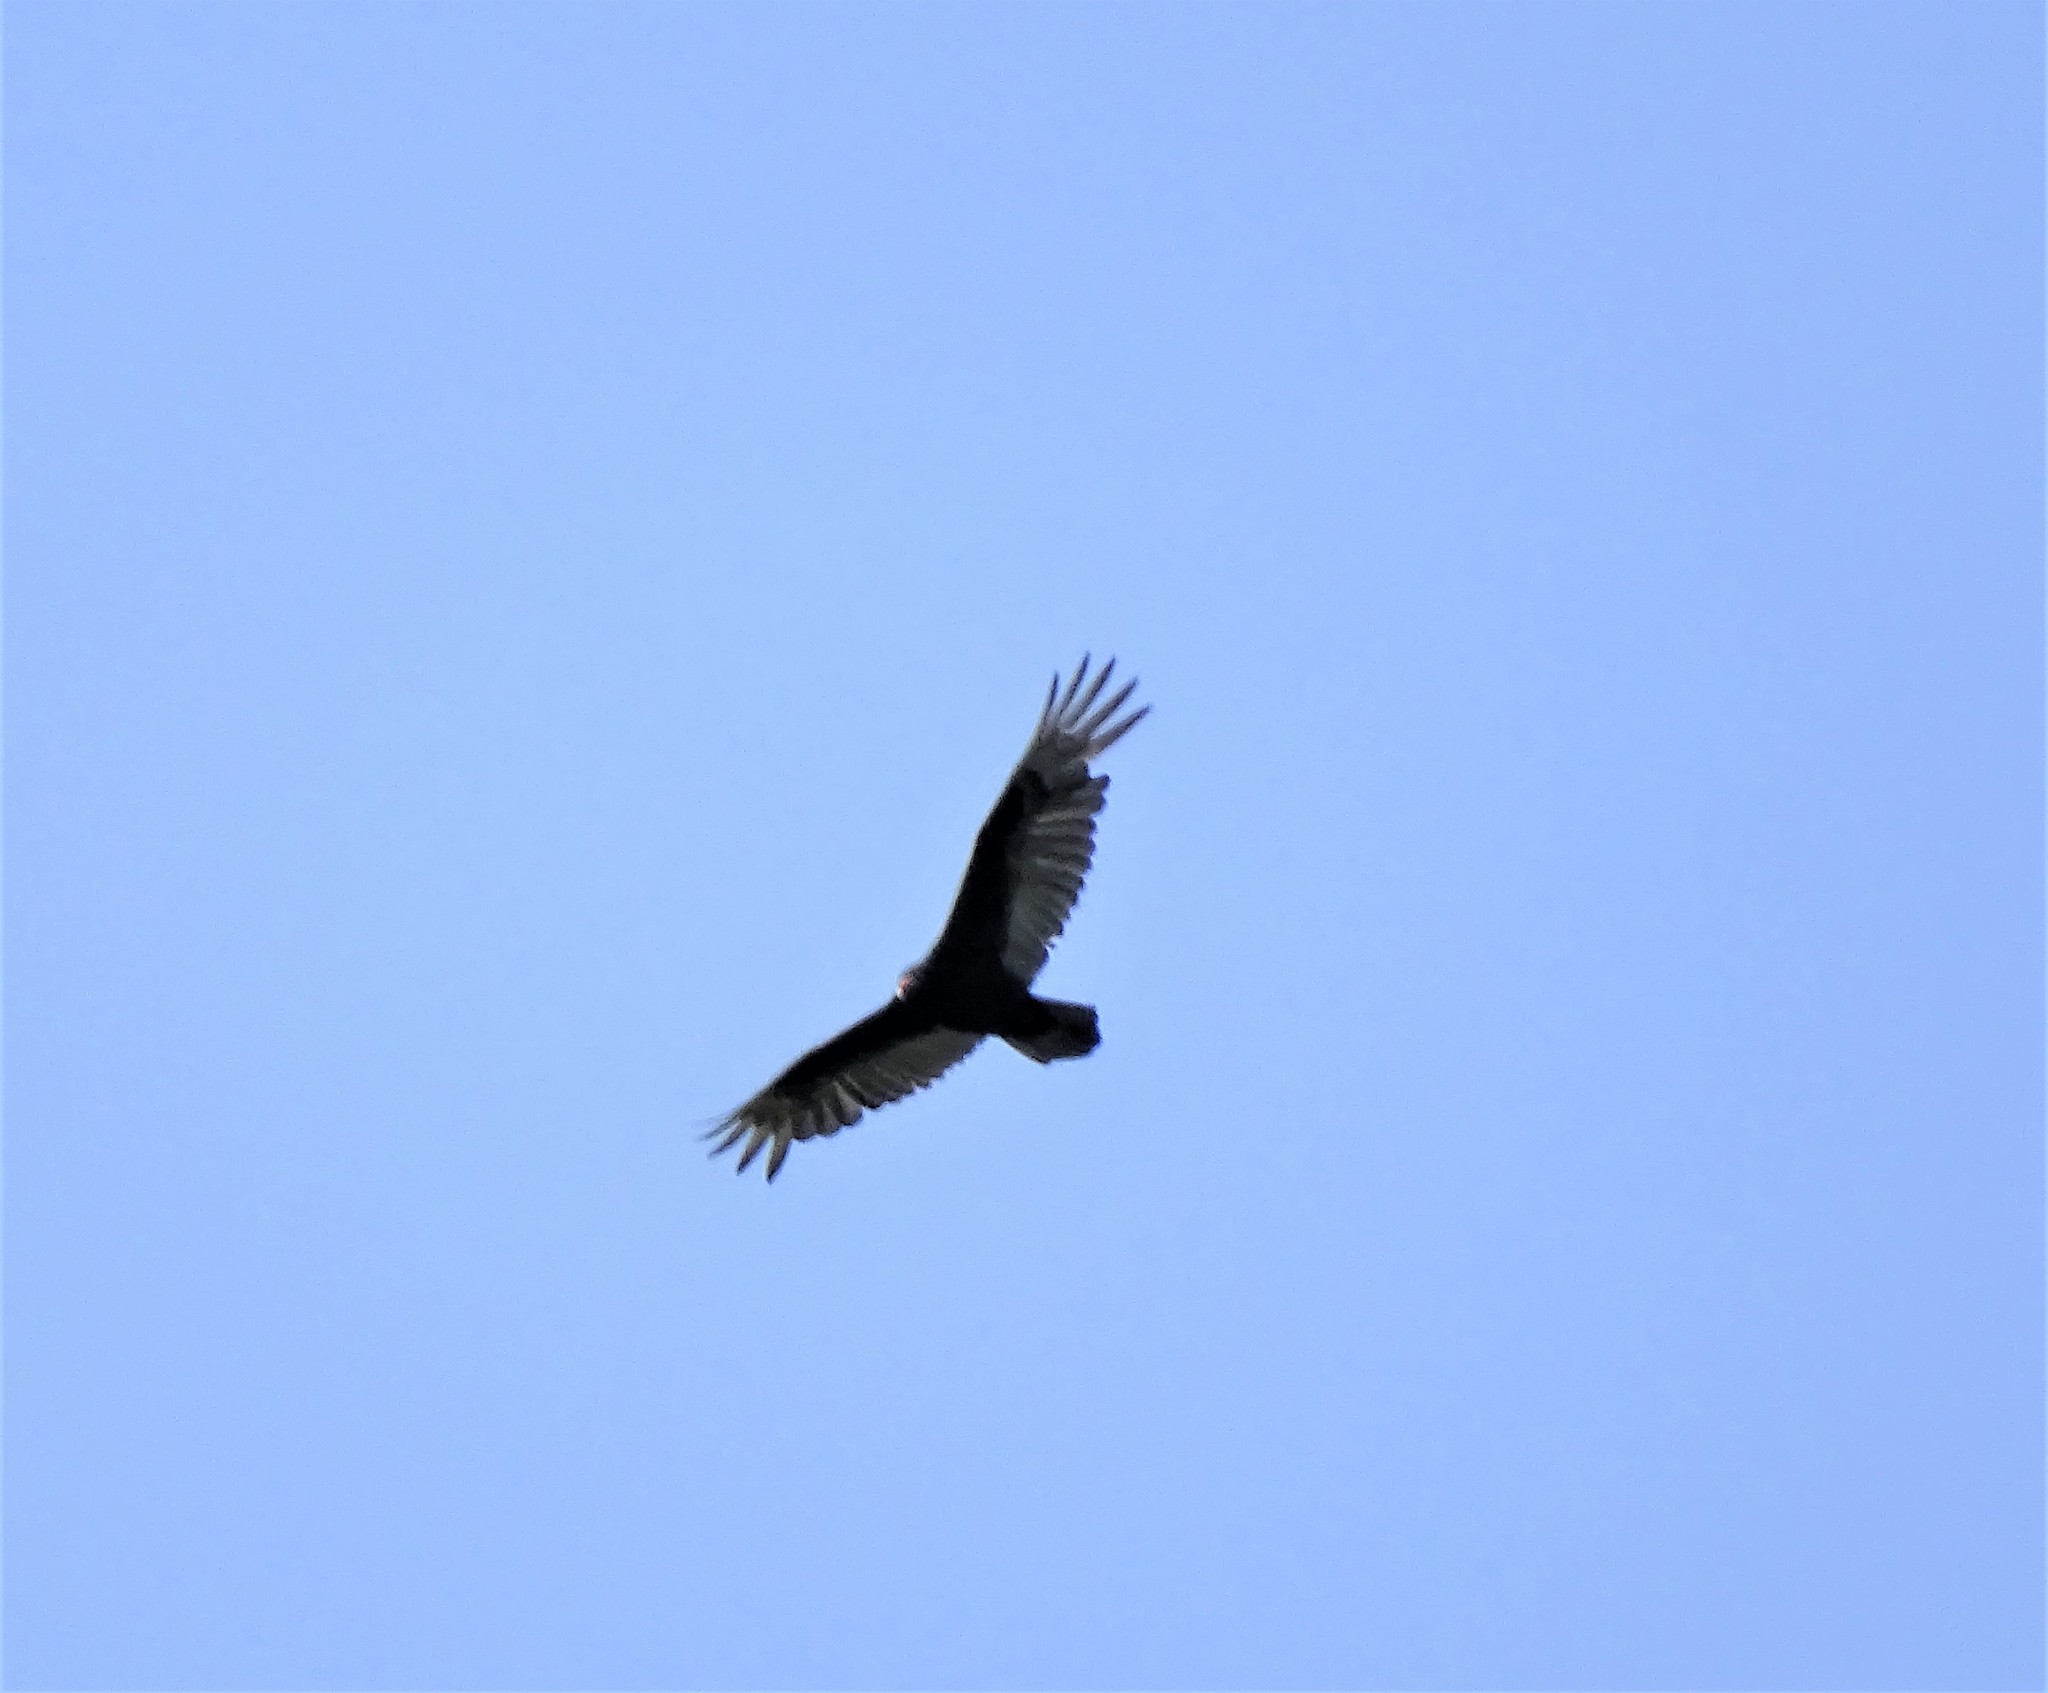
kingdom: Animalia
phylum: Chordata
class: Aves
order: Accipitriformes
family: Cathartidae
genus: Cathartes
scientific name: Cathartes aura
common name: Turkey vulture
